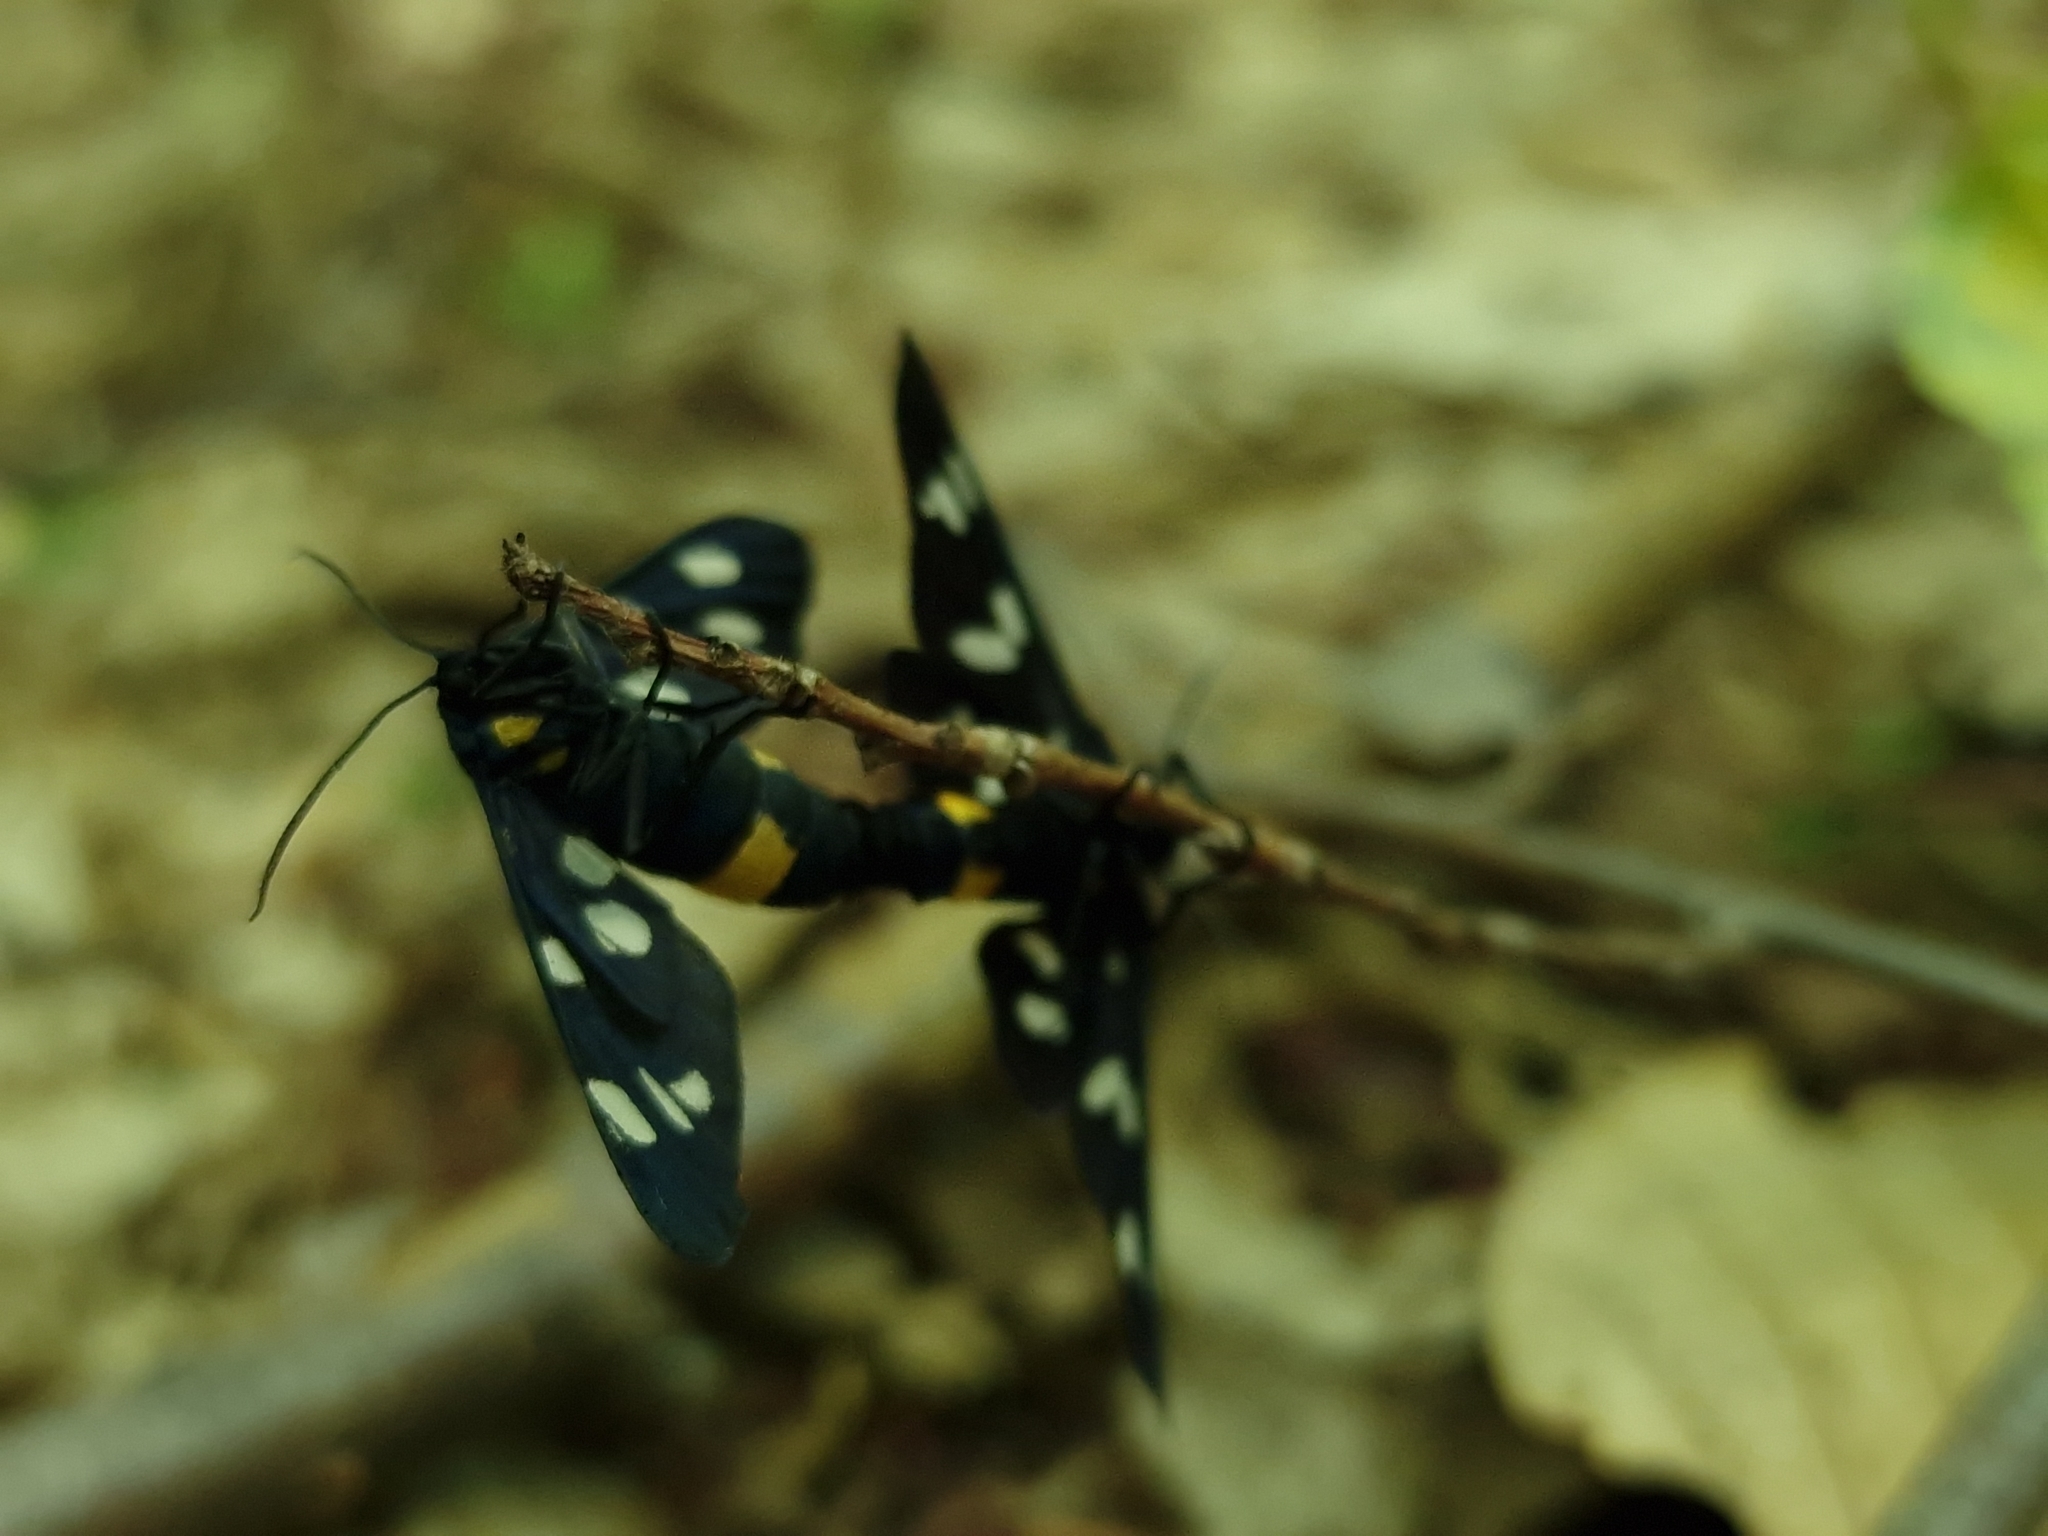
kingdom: Animalia
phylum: Arthropoda
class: Insecta
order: Lepidoptera
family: Erebidae
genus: Amata
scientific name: Amata phegea
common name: Nine-spotted
